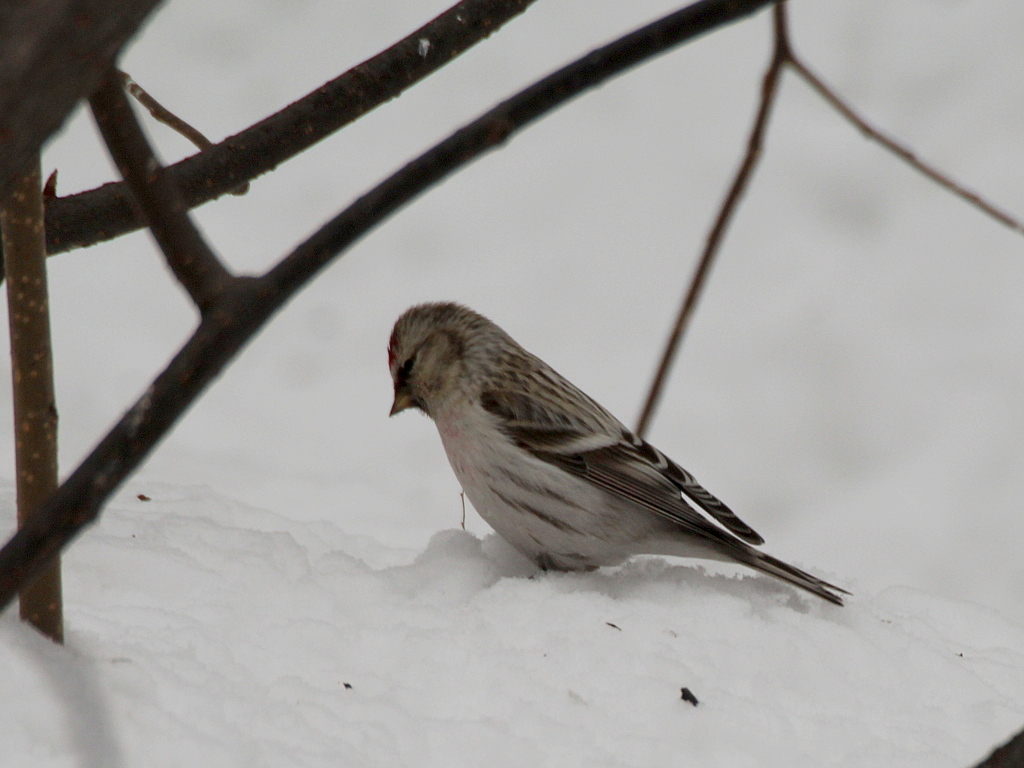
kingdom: Animalia
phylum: Chordata
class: Aves
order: Passeriformes
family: Fringillidae
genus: Acanthis
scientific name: Acanthis hornemanni
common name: Arctic redpoll
